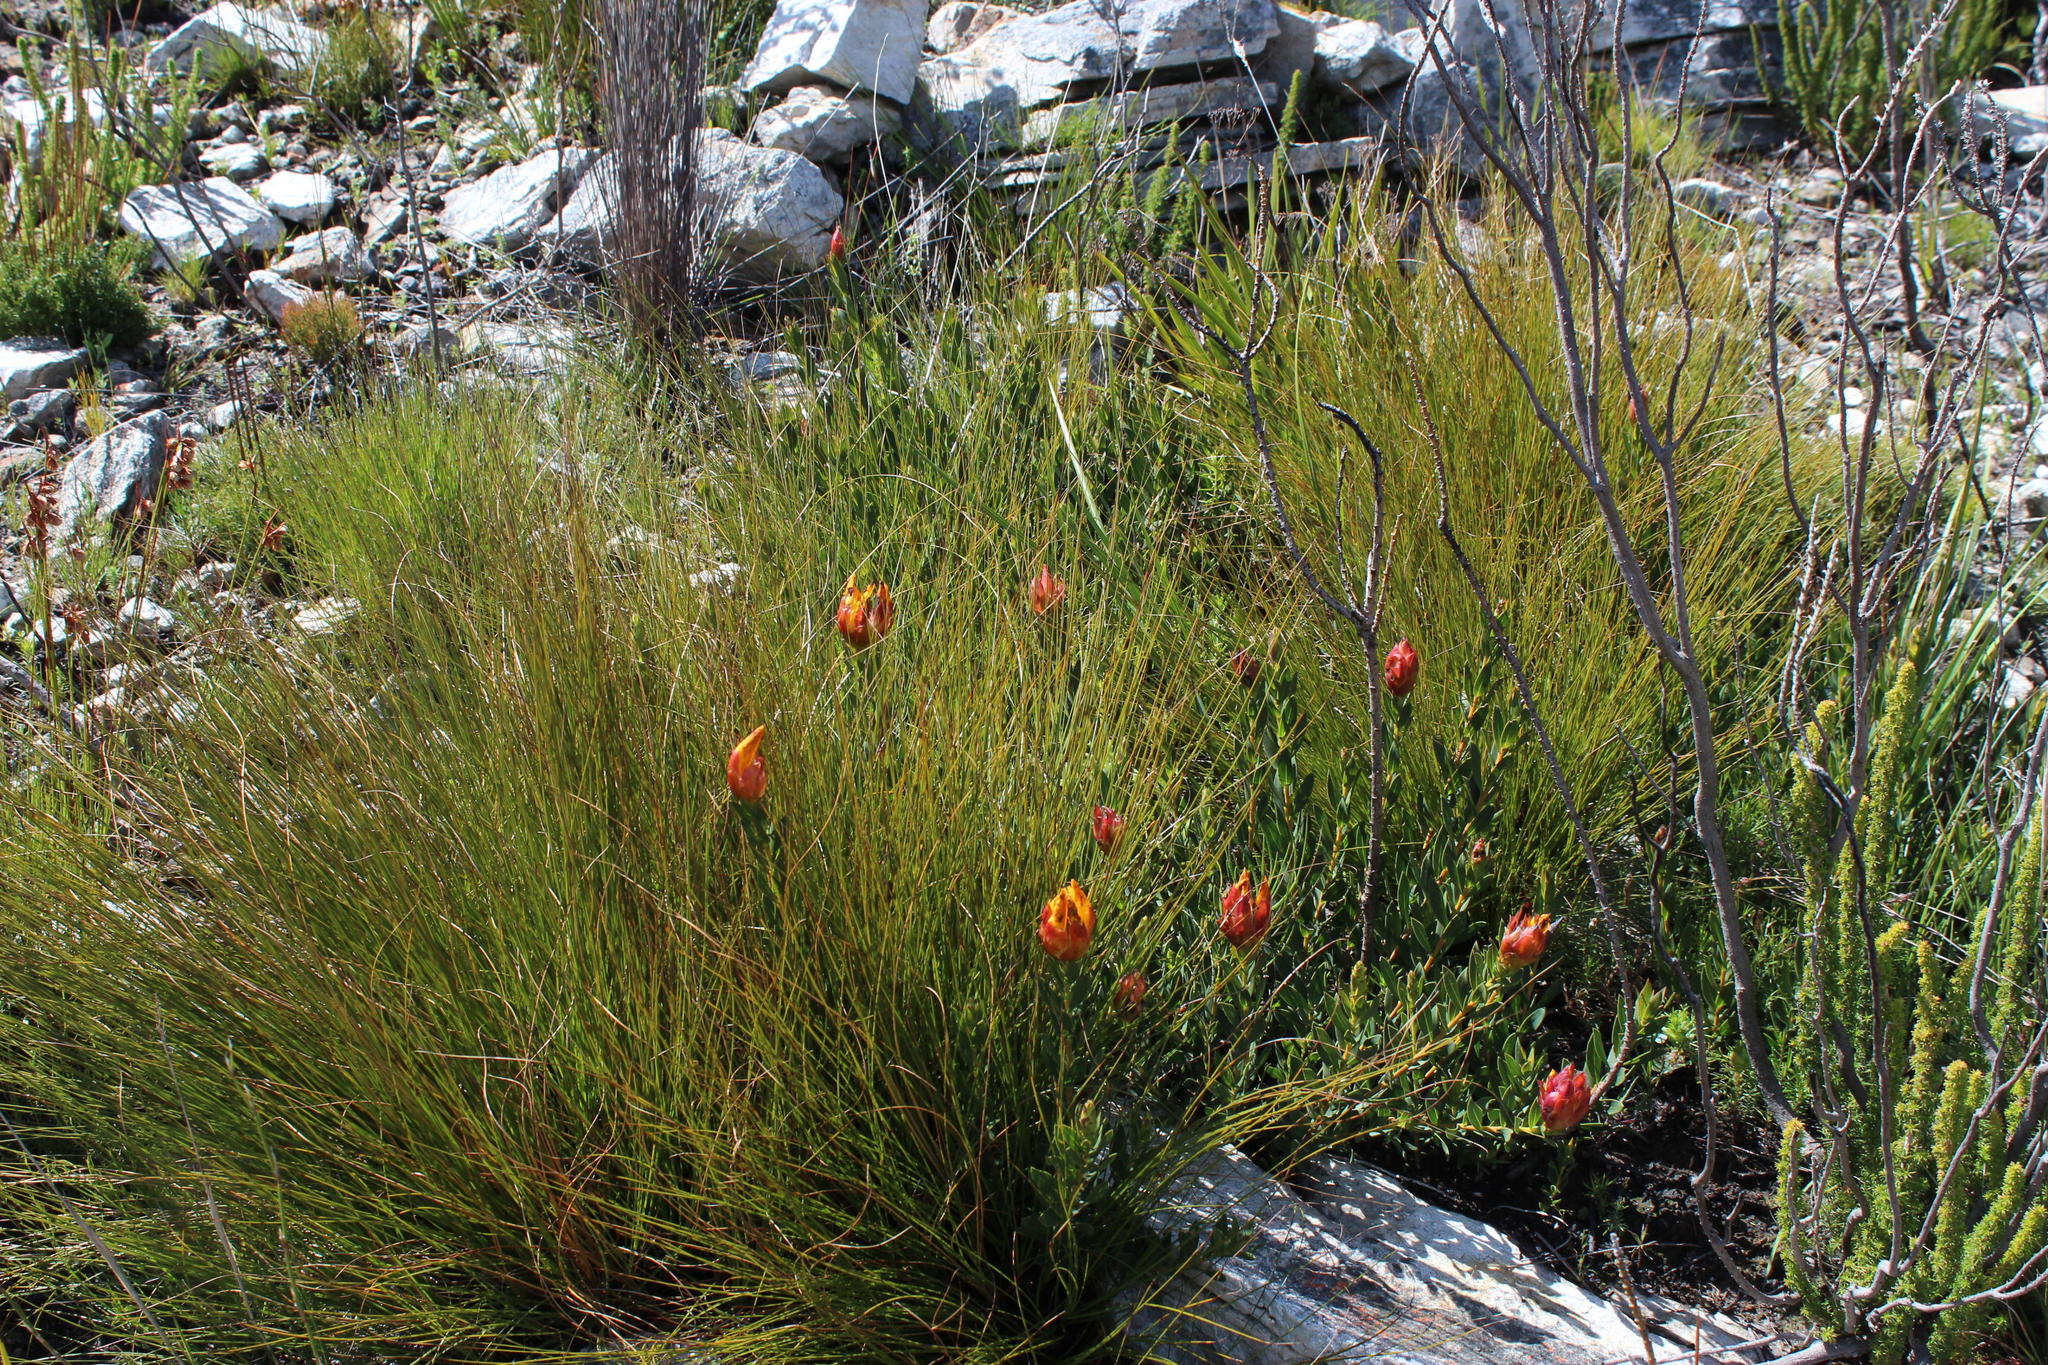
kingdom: Plantae
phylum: Tracheophyta
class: Magnoliopsida
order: Fabales
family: Fabaceae
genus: Liparia
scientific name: Liparia splendens
